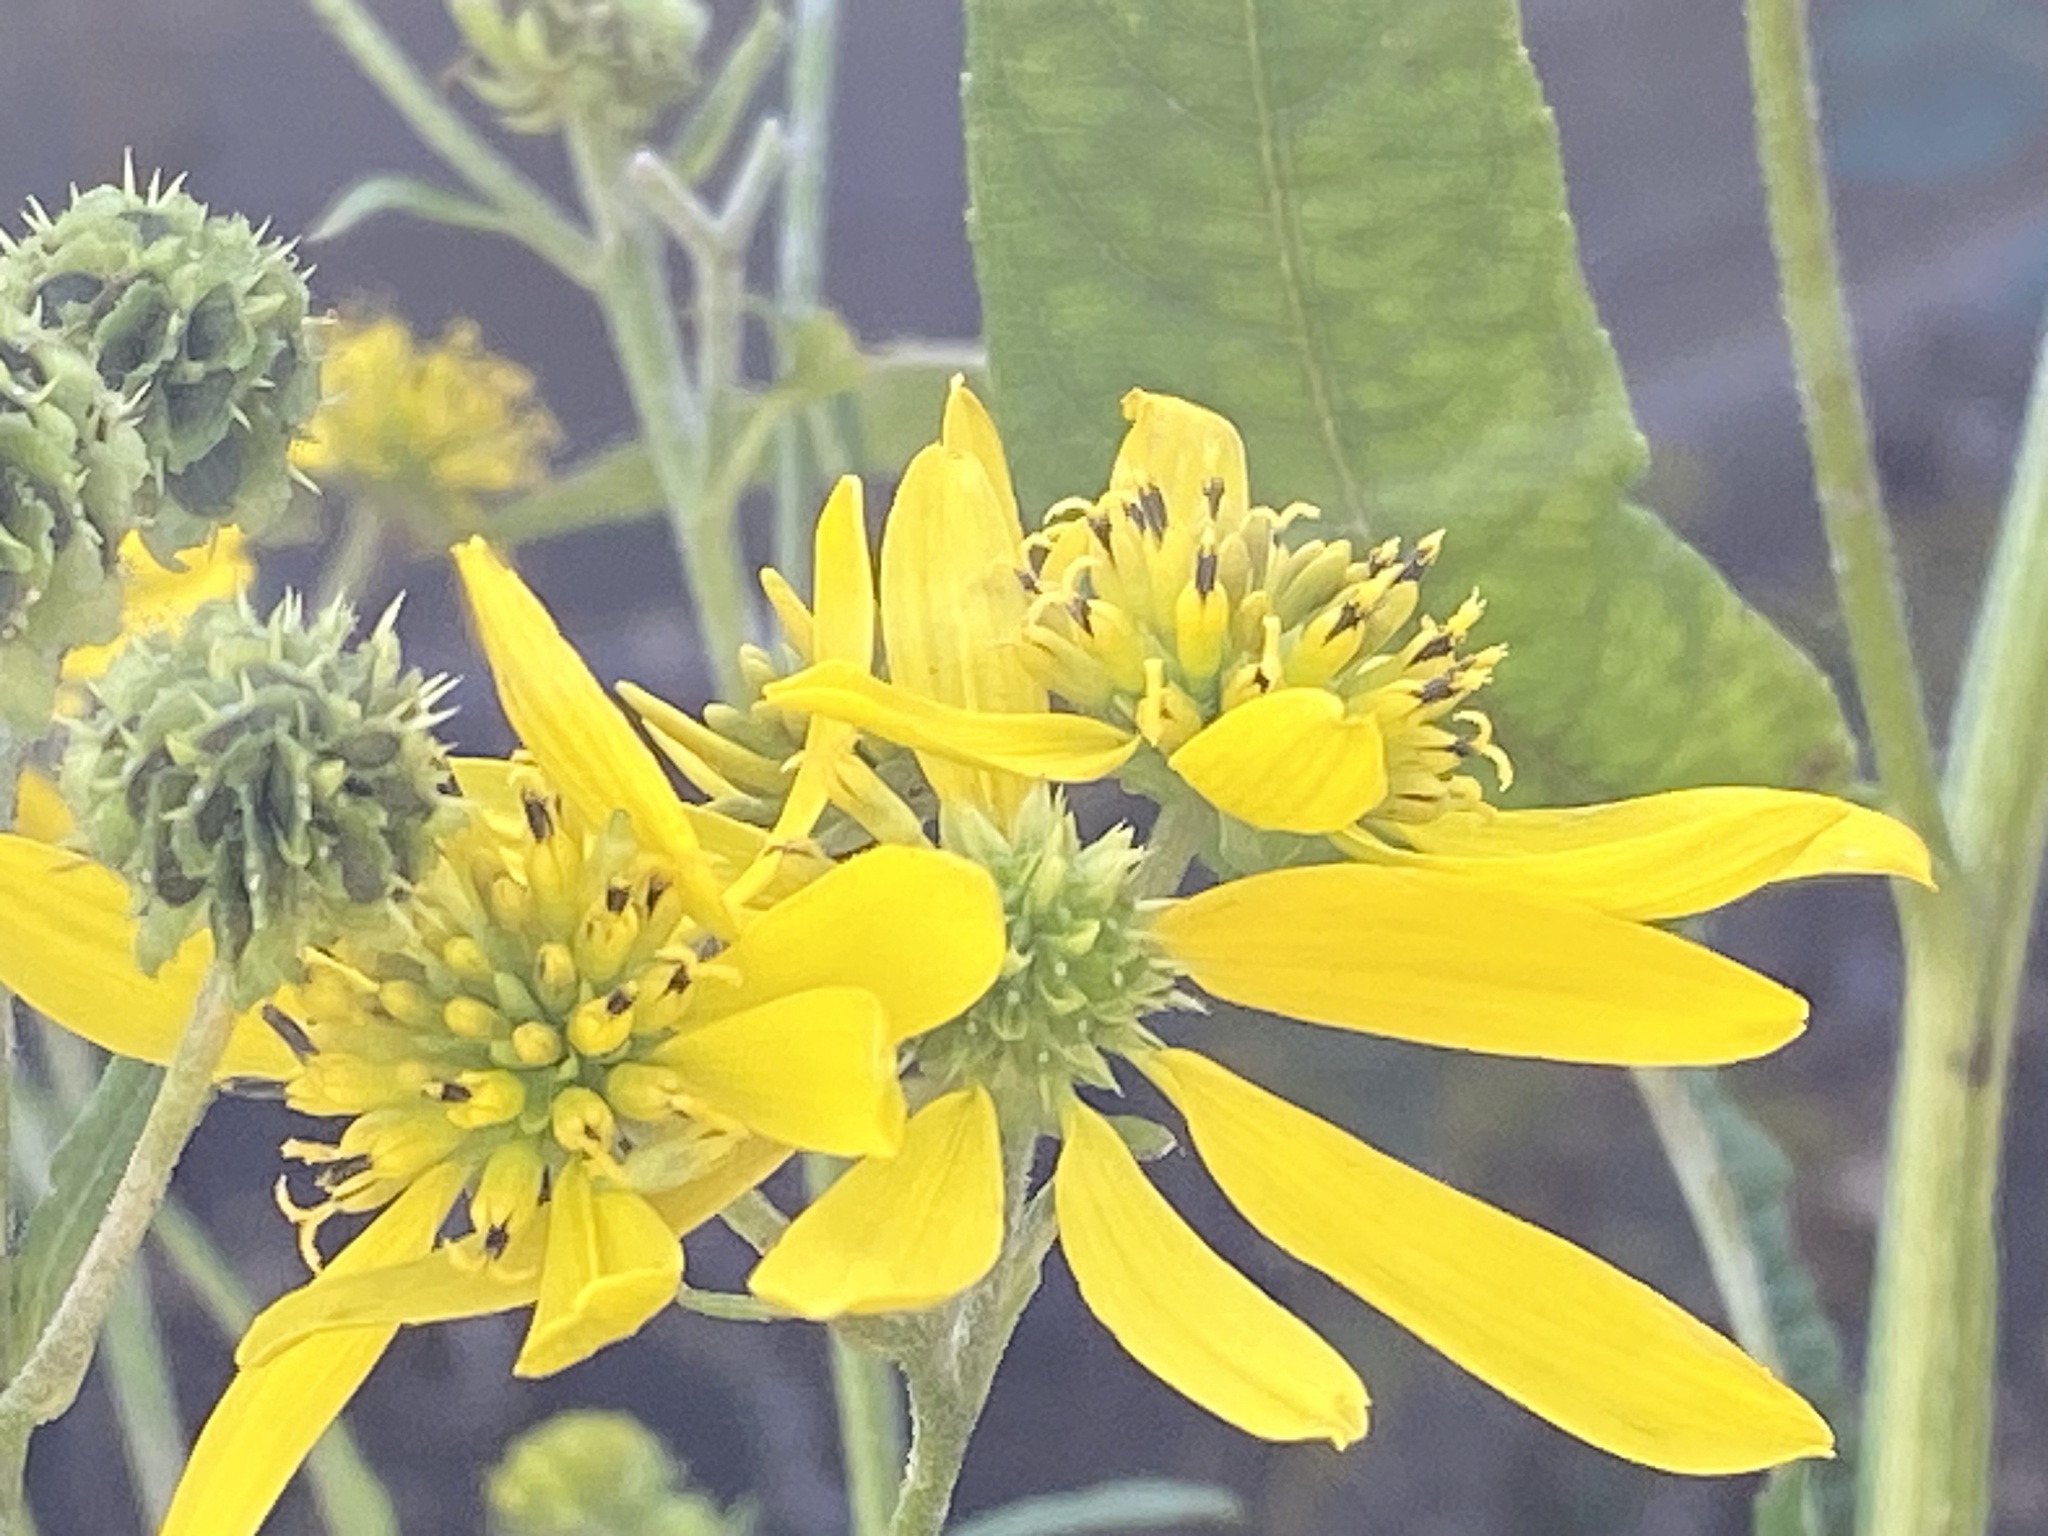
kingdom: Plantae
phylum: Tracheophyta
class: Magnoliopsida
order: Asterales
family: Asteraceae
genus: Verbesina
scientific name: Verbesina alternifolia
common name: Wingstem
